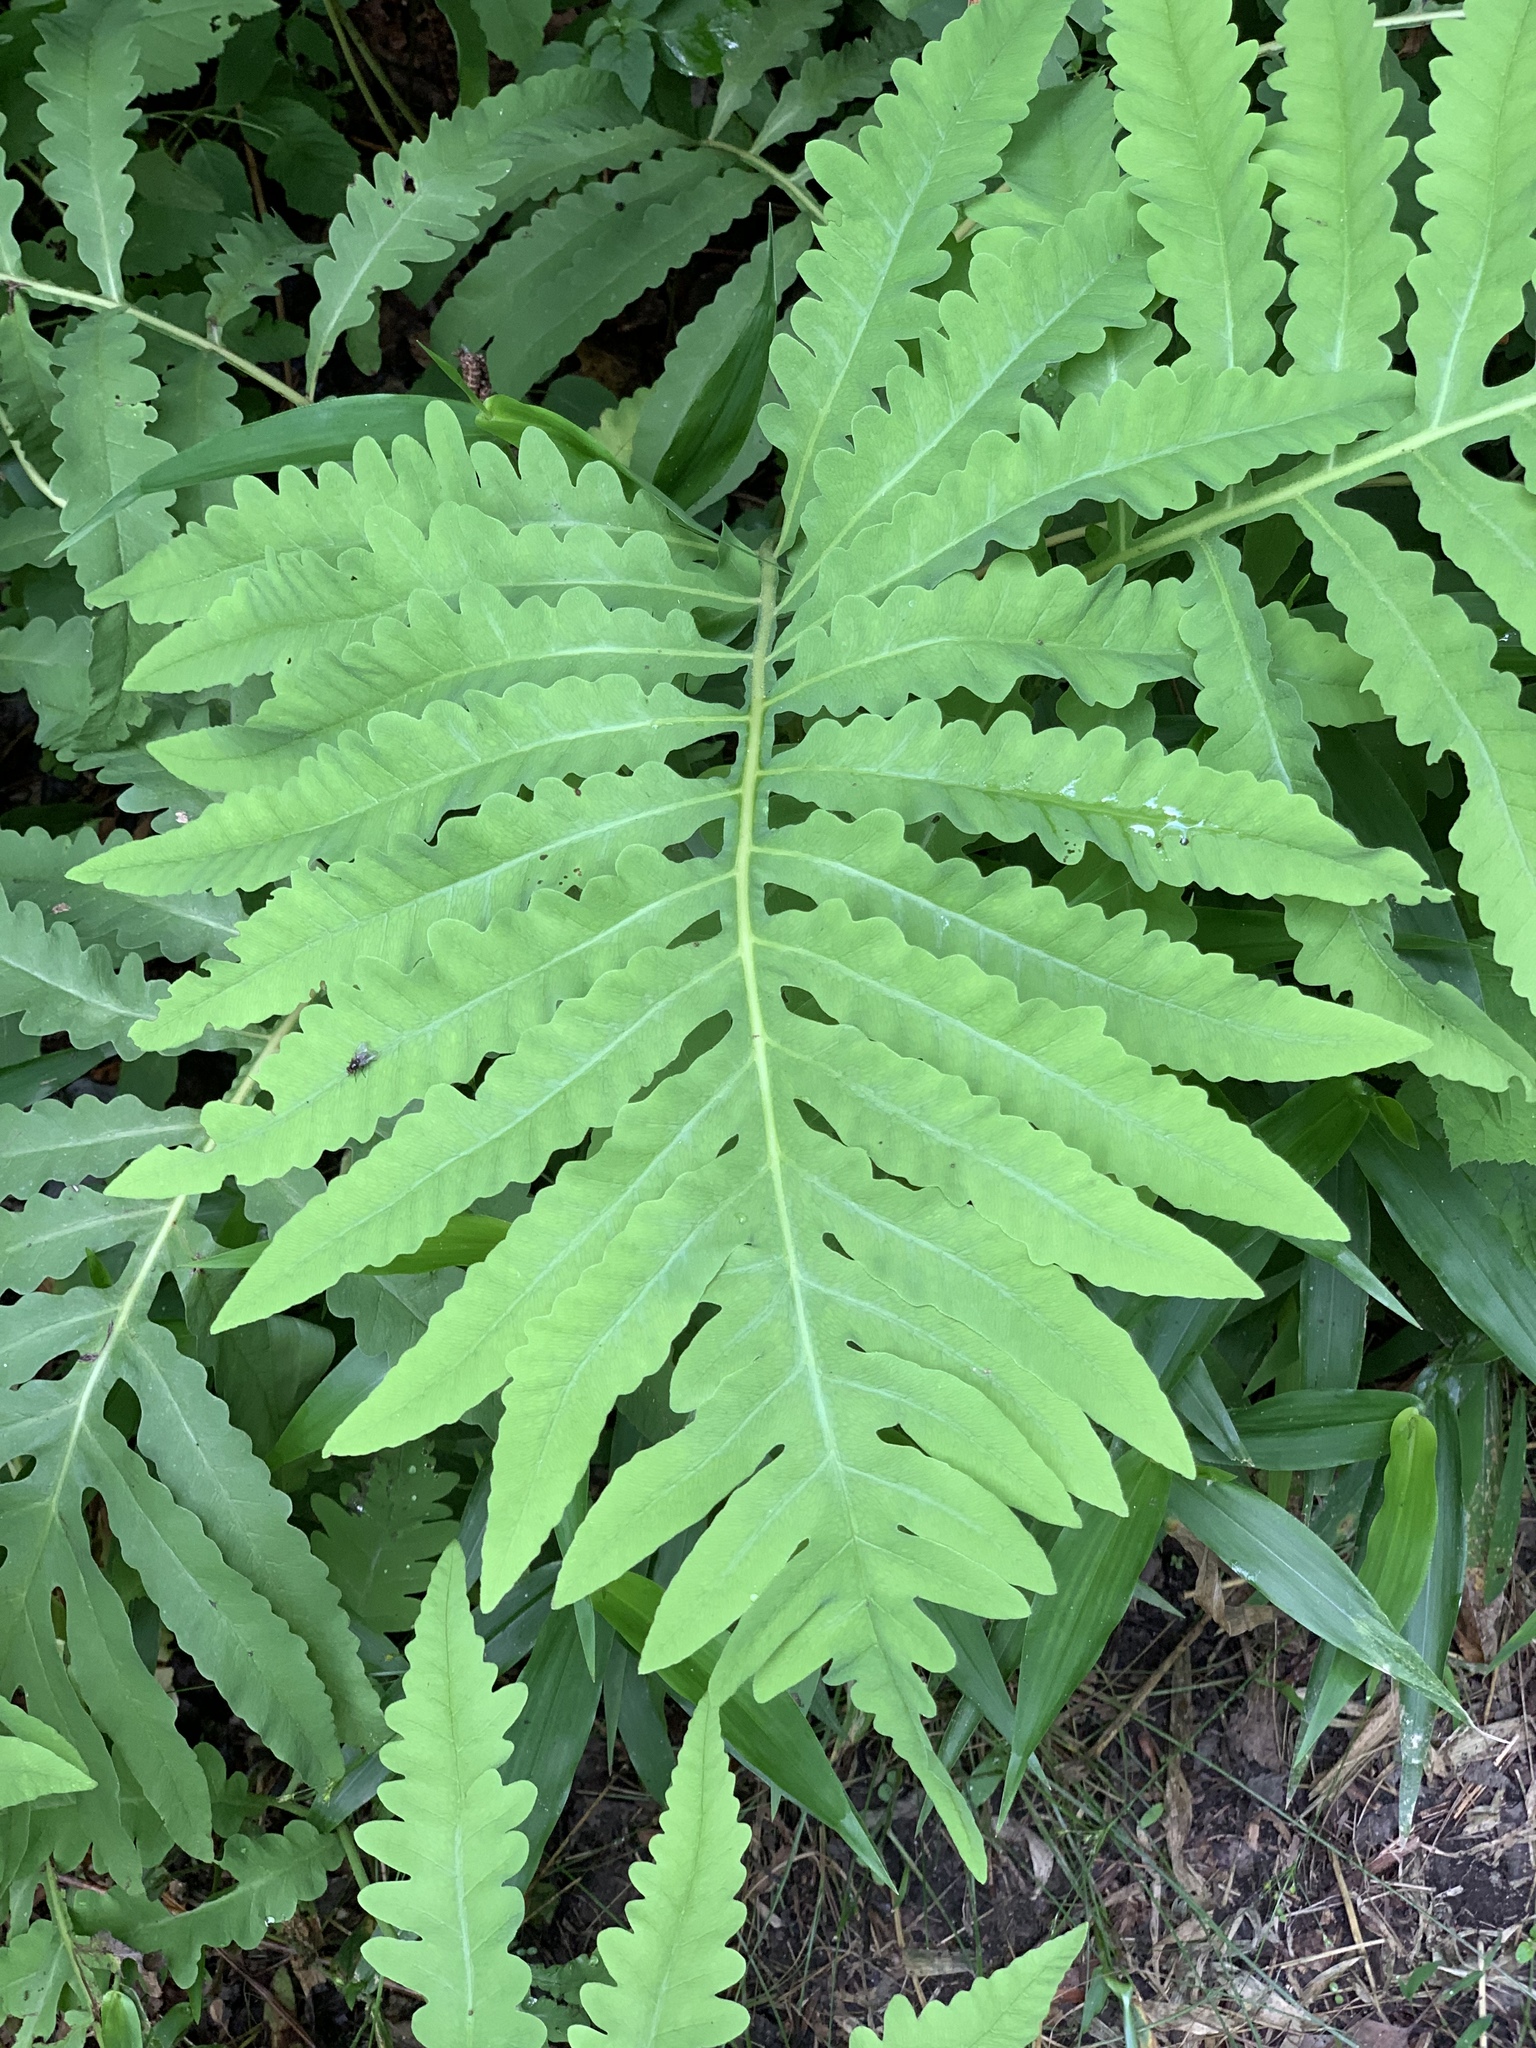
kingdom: Plantae
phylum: Tracheophyta
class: Polypodiopsida
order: Polypodiales
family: Onocleaceae
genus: Onoclea
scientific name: Onoclea sensibilis
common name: Sensitive fern
